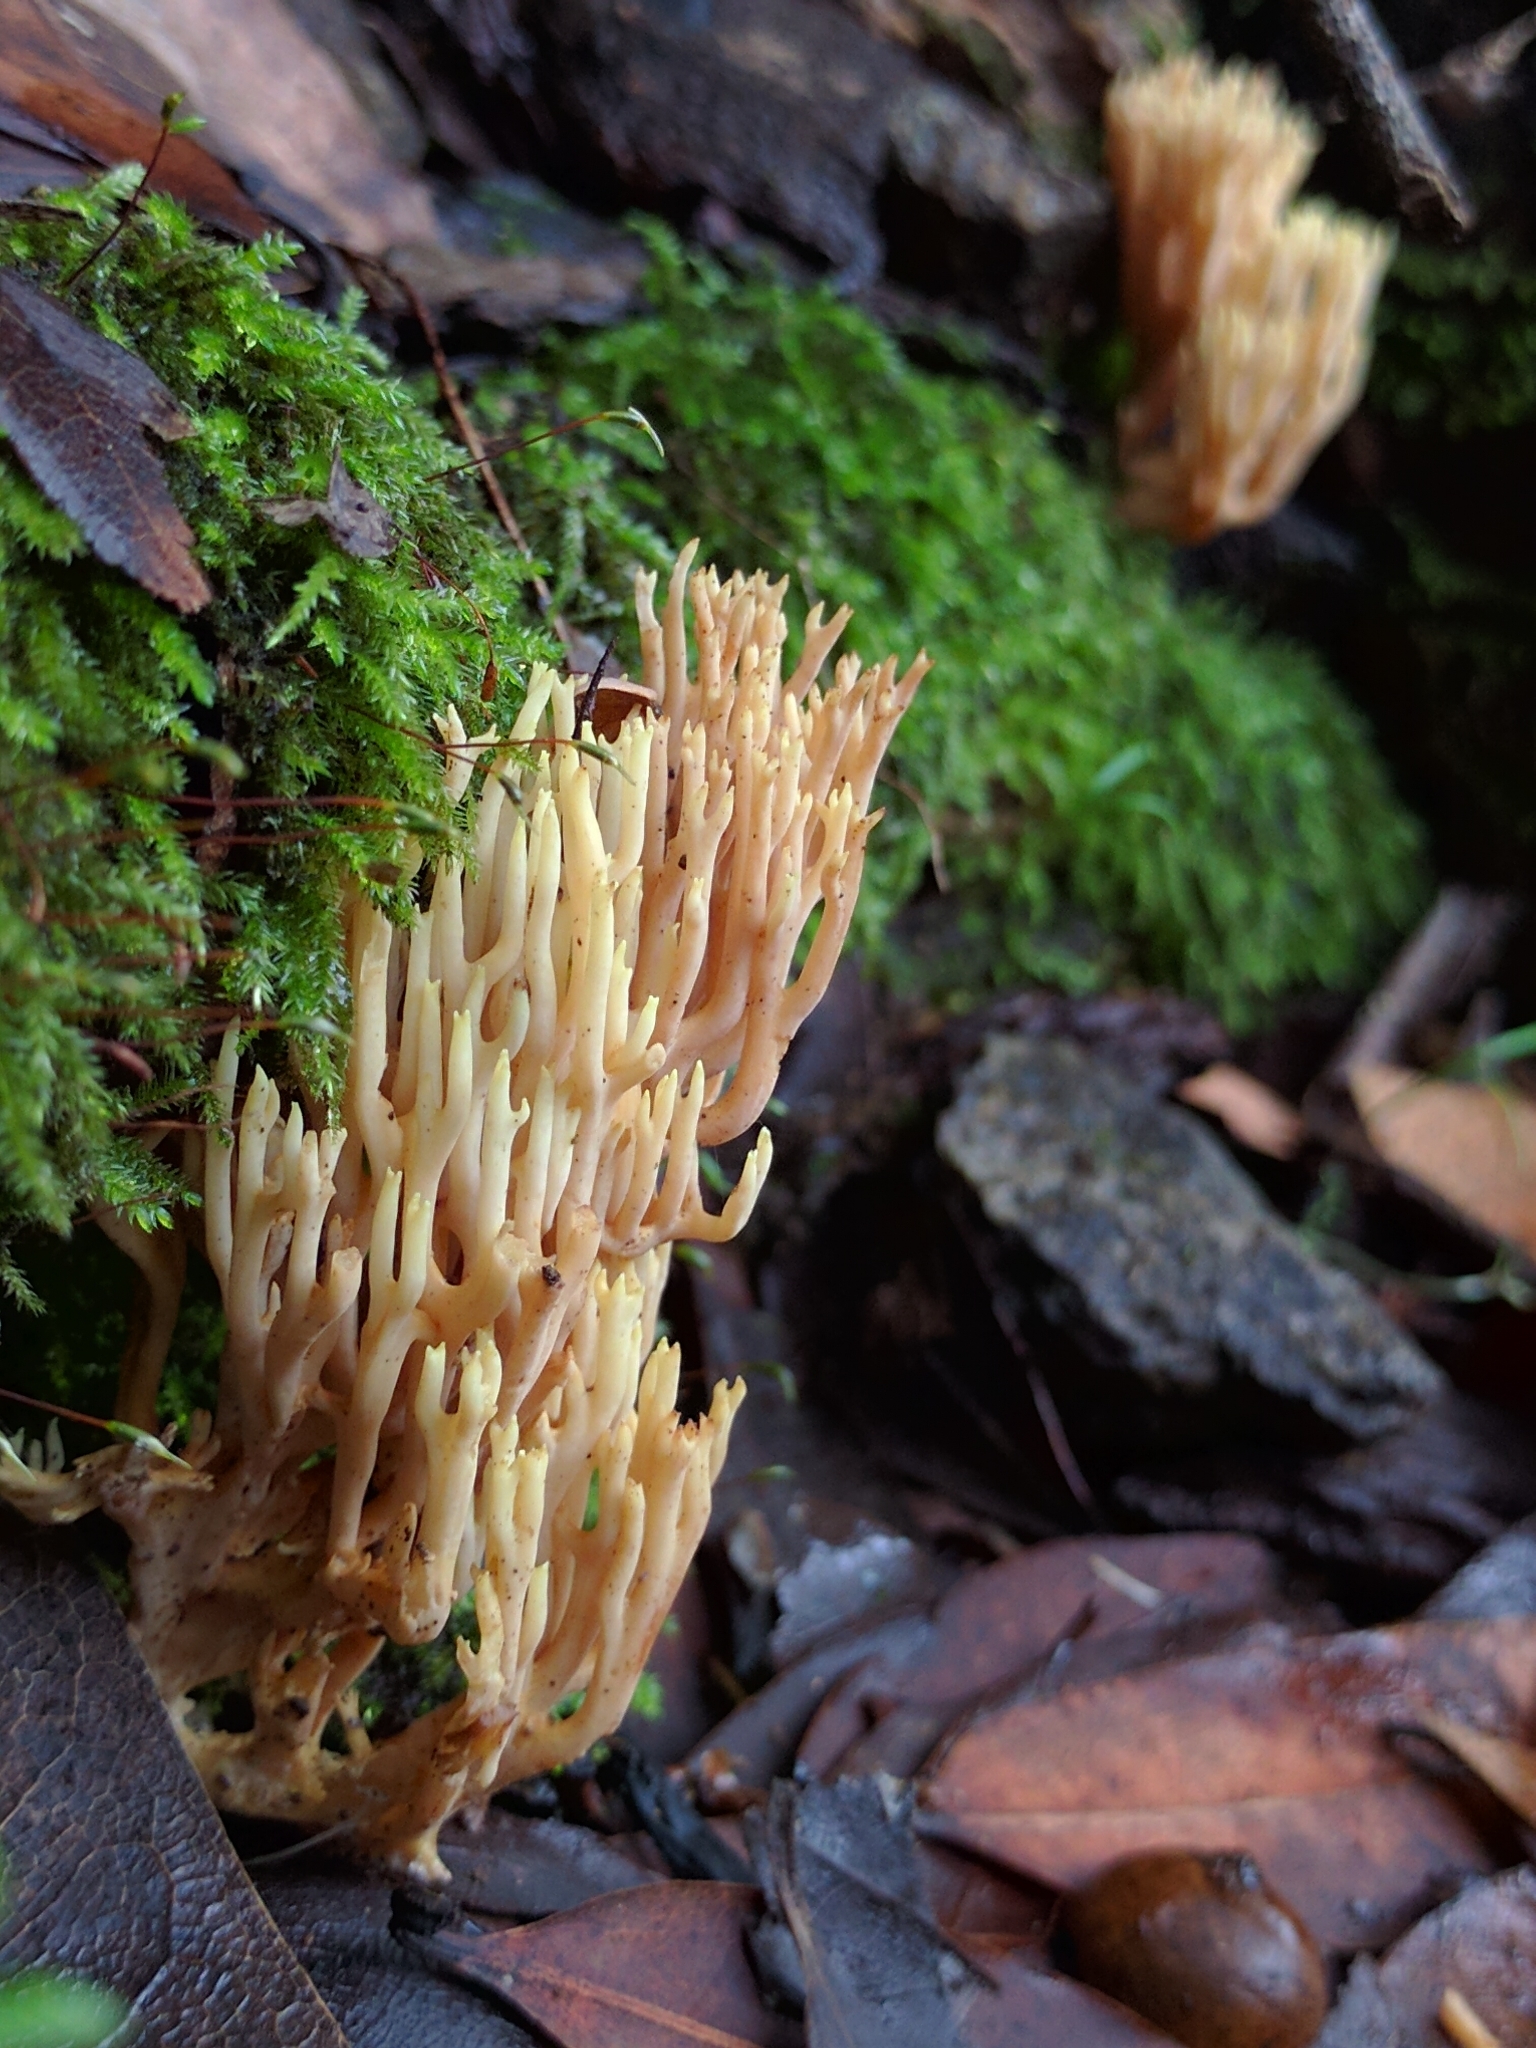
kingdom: Fungi
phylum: Basidiomycota
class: Agaricomycetes
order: Gomphales
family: Gomphaceae
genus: Ramaria
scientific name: Ramaria stricta
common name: Upright coral
